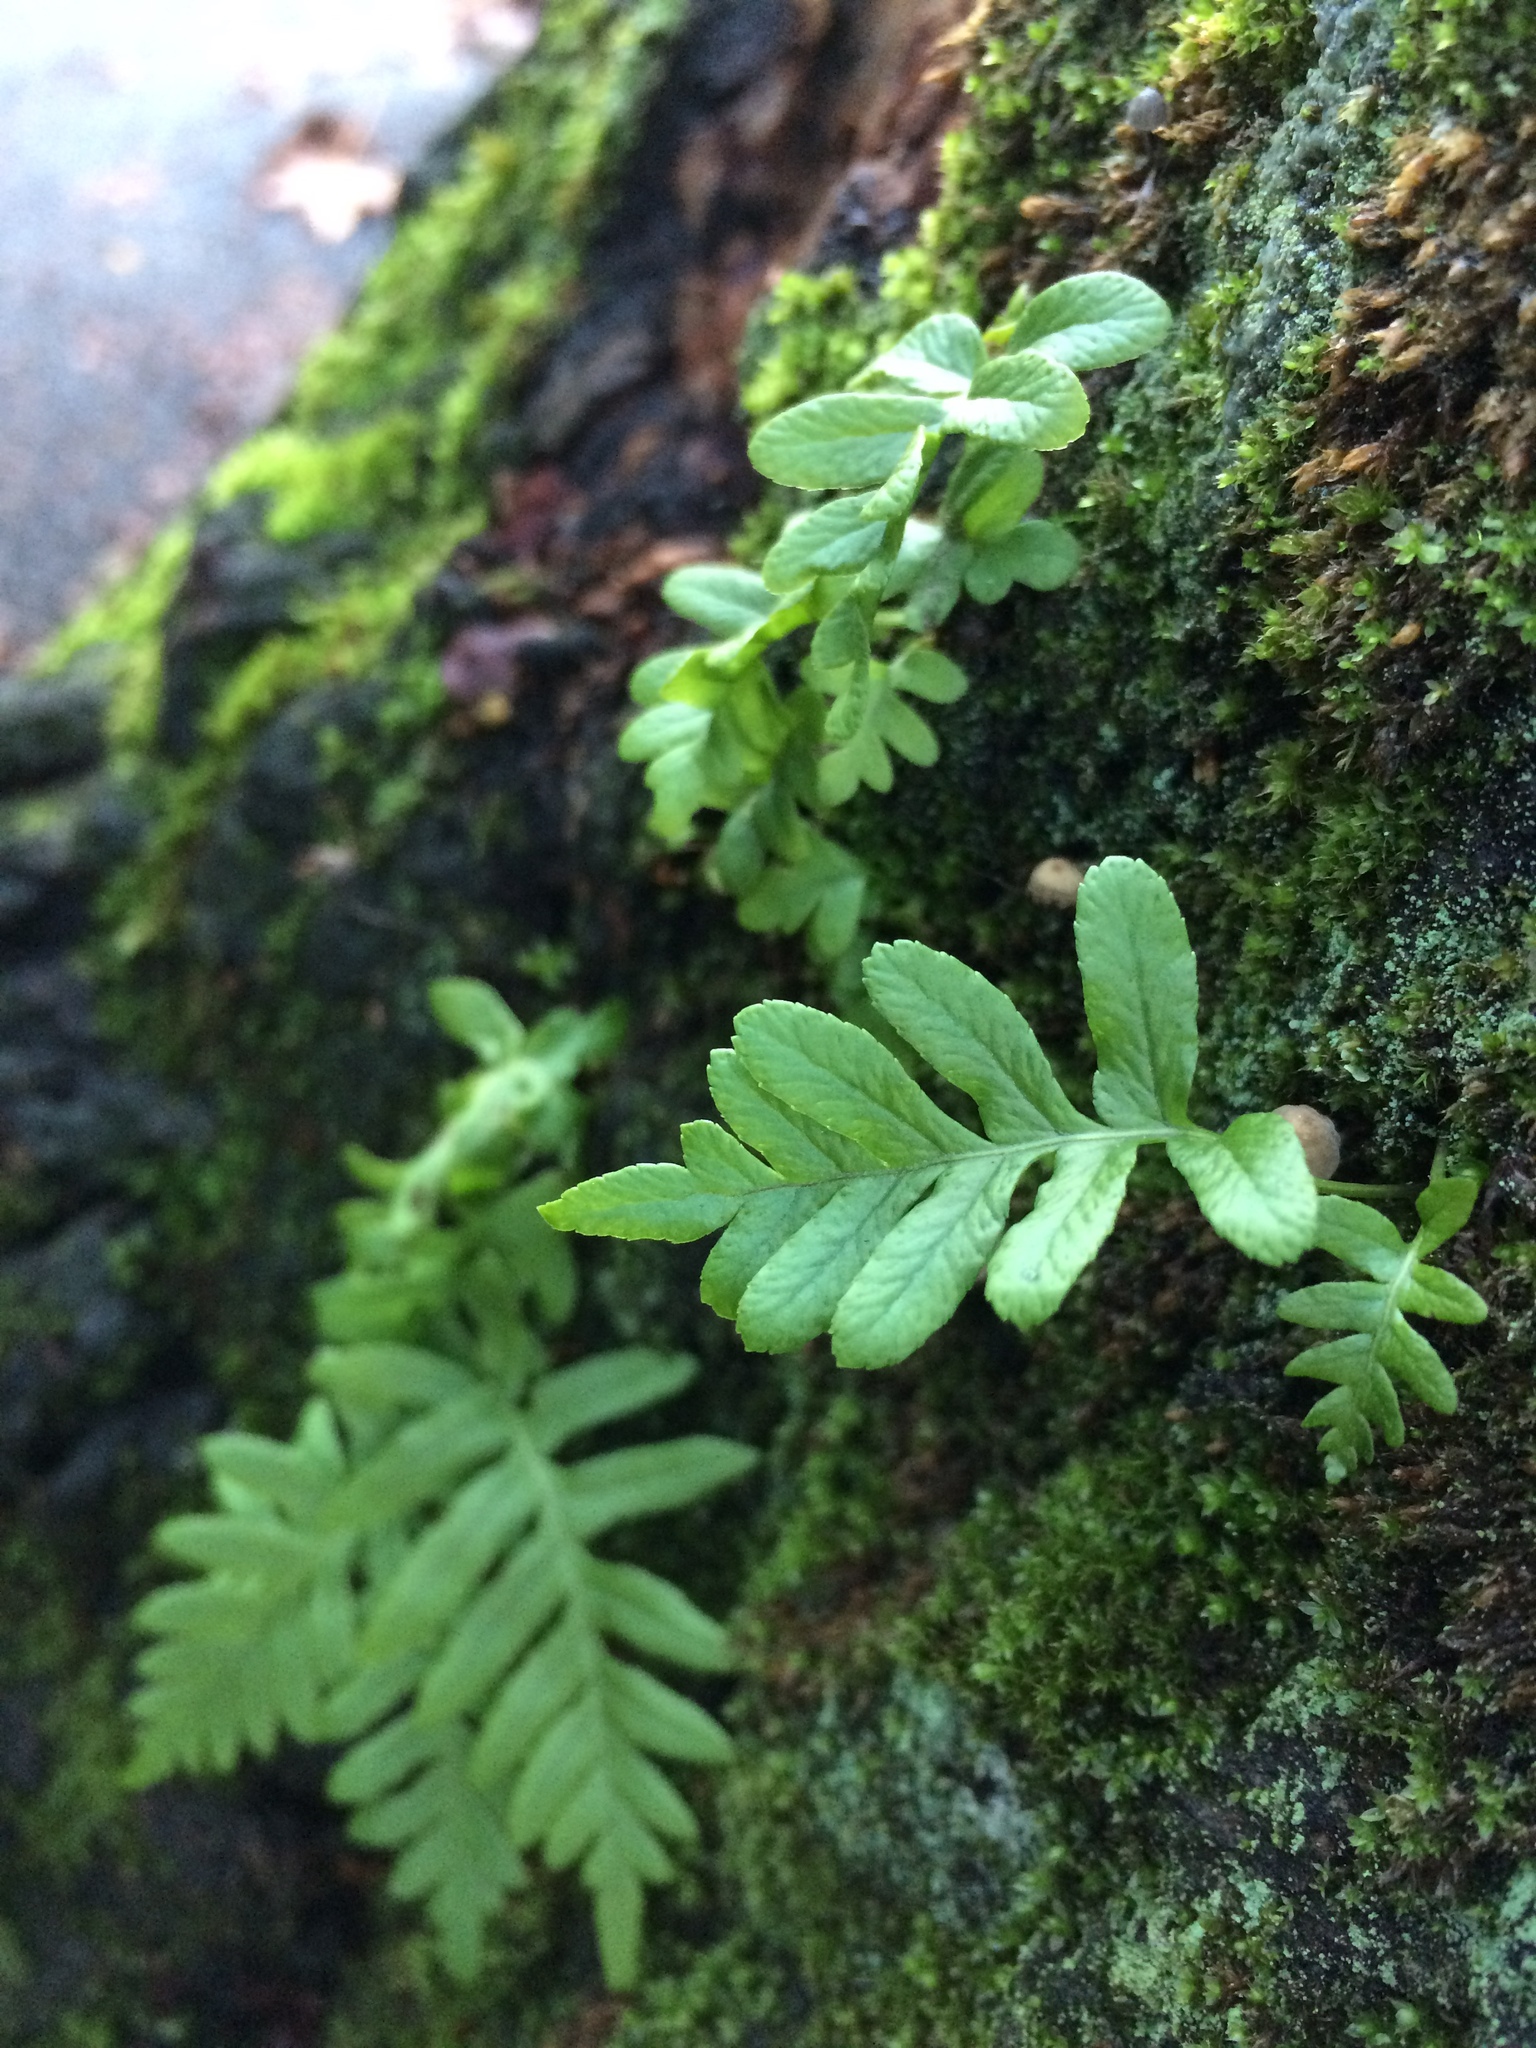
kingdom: Plantae
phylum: Tracheophyta
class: Polypodiopsida
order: Polypodiales
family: Polypodiaceae
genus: Polypodium
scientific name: Polypodium glycyrrhiza
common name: Licorice fern
